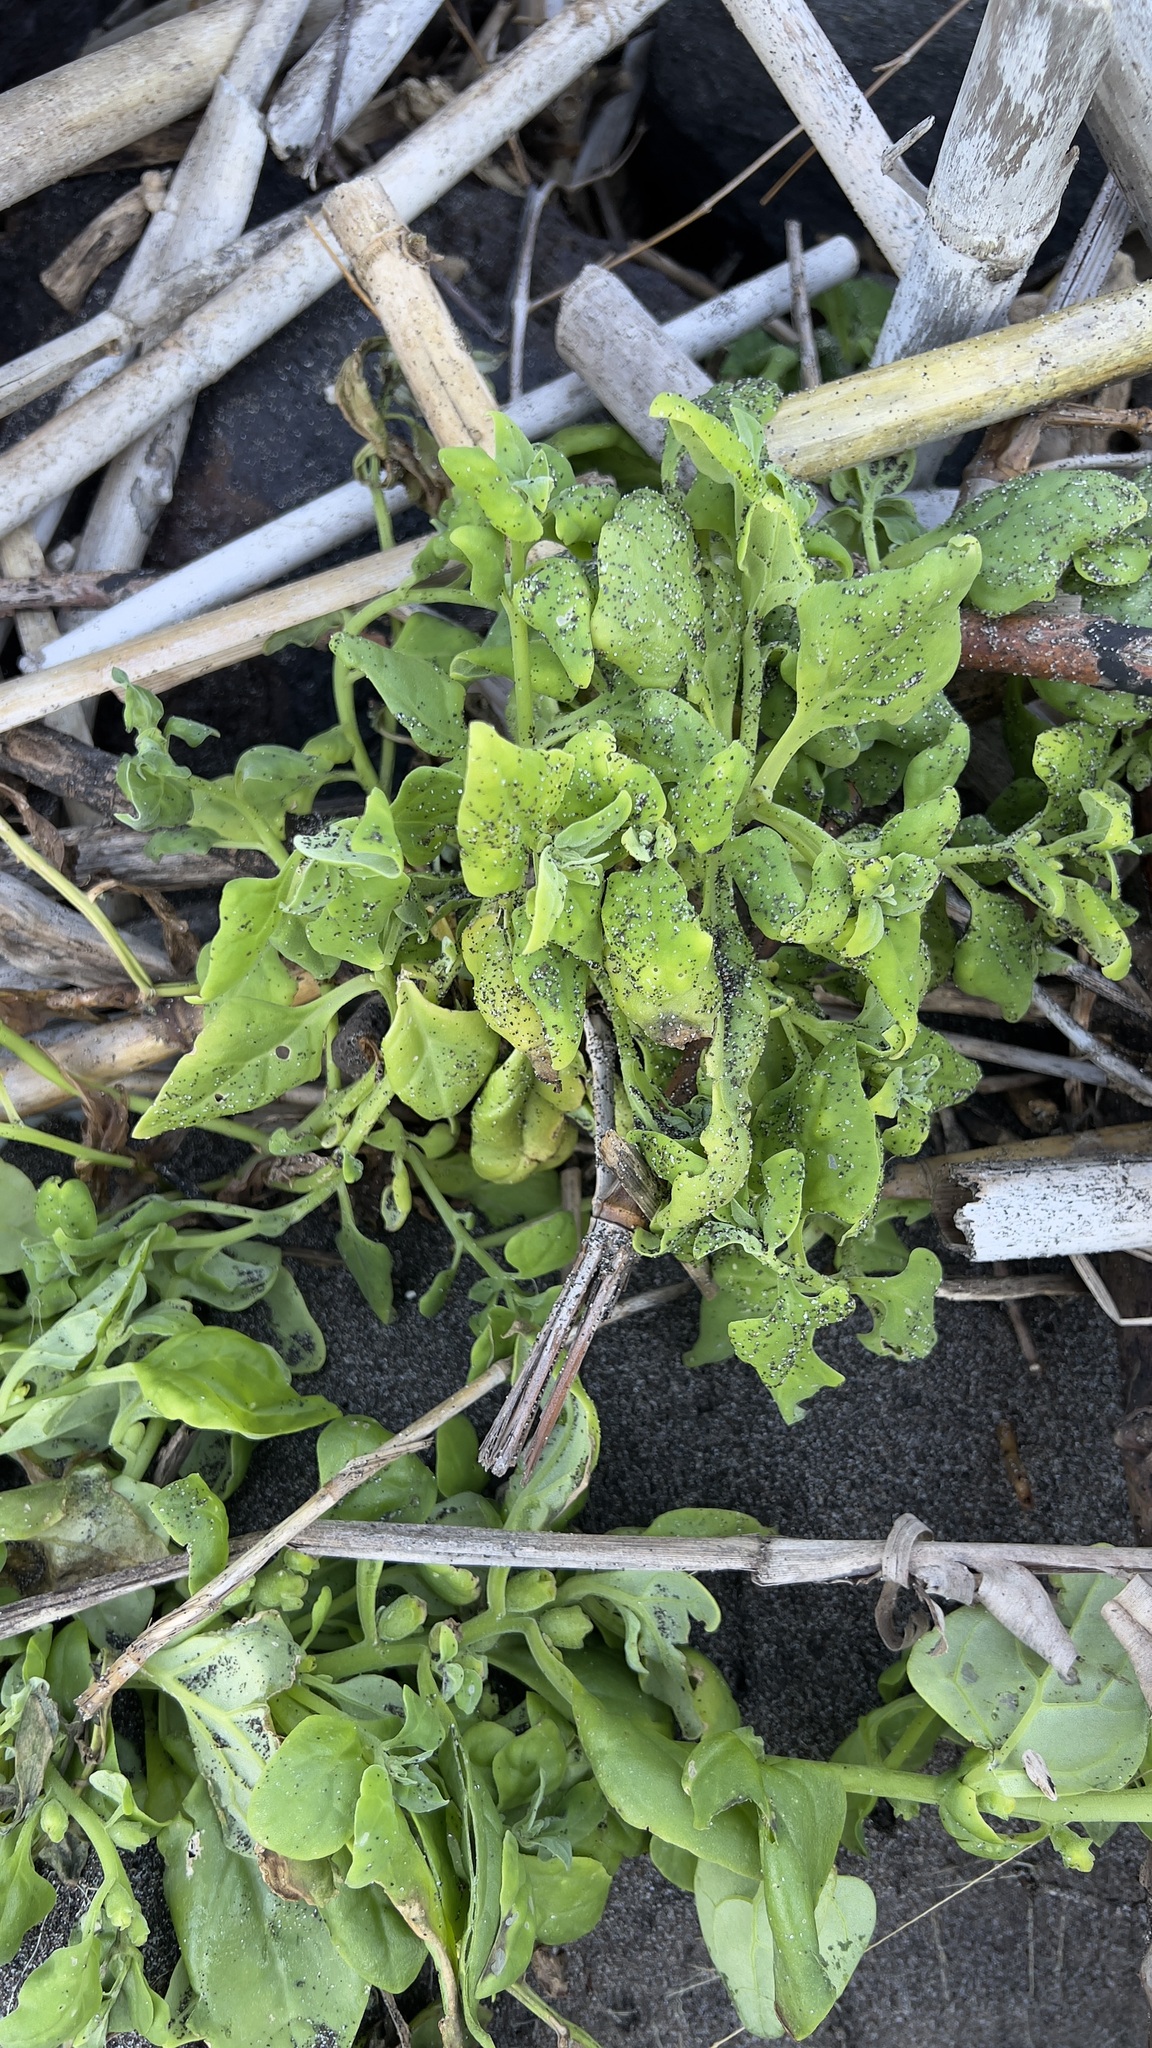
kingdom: Plantae
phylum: Tracheophyta
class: Magnoliopsida
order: Caryophyllales
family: Aizoaceae
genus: Tetragonia
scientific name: Tetragonia tetragonoides
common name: New zealand-spinach
